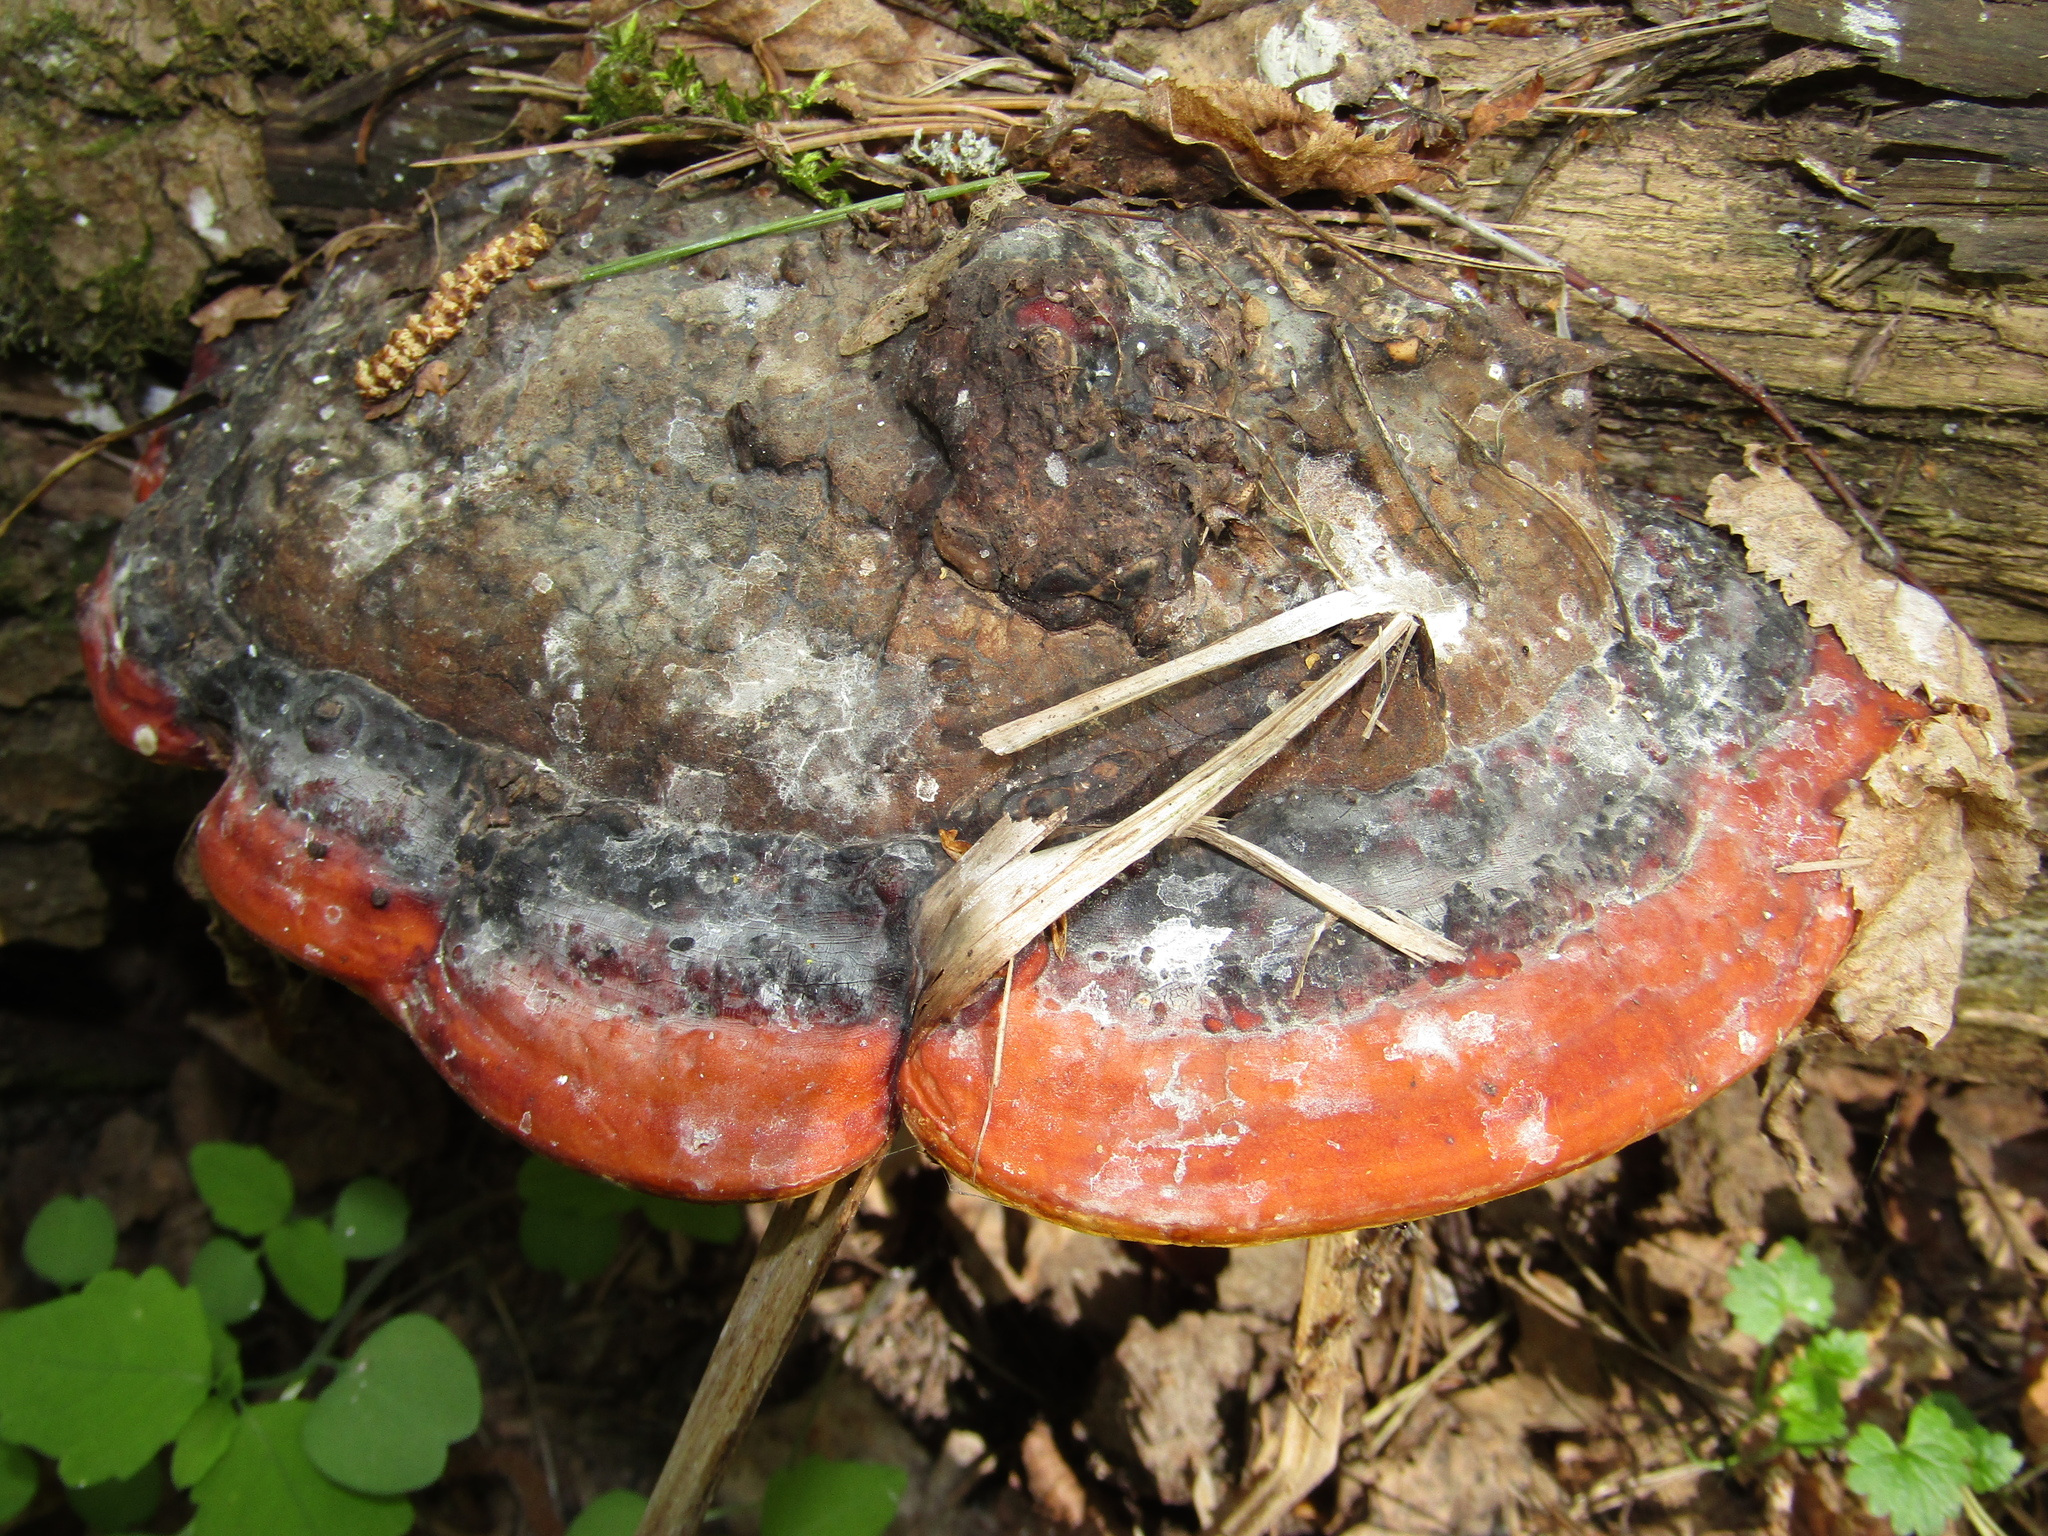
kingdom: Fungi
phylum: Basidiomycota
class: Agaricomycetes
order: Polyporales
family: Fomitopsidaceae
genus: Fomitopsis
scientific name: Fomitopsis pinicola
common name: Red-belted bracket
